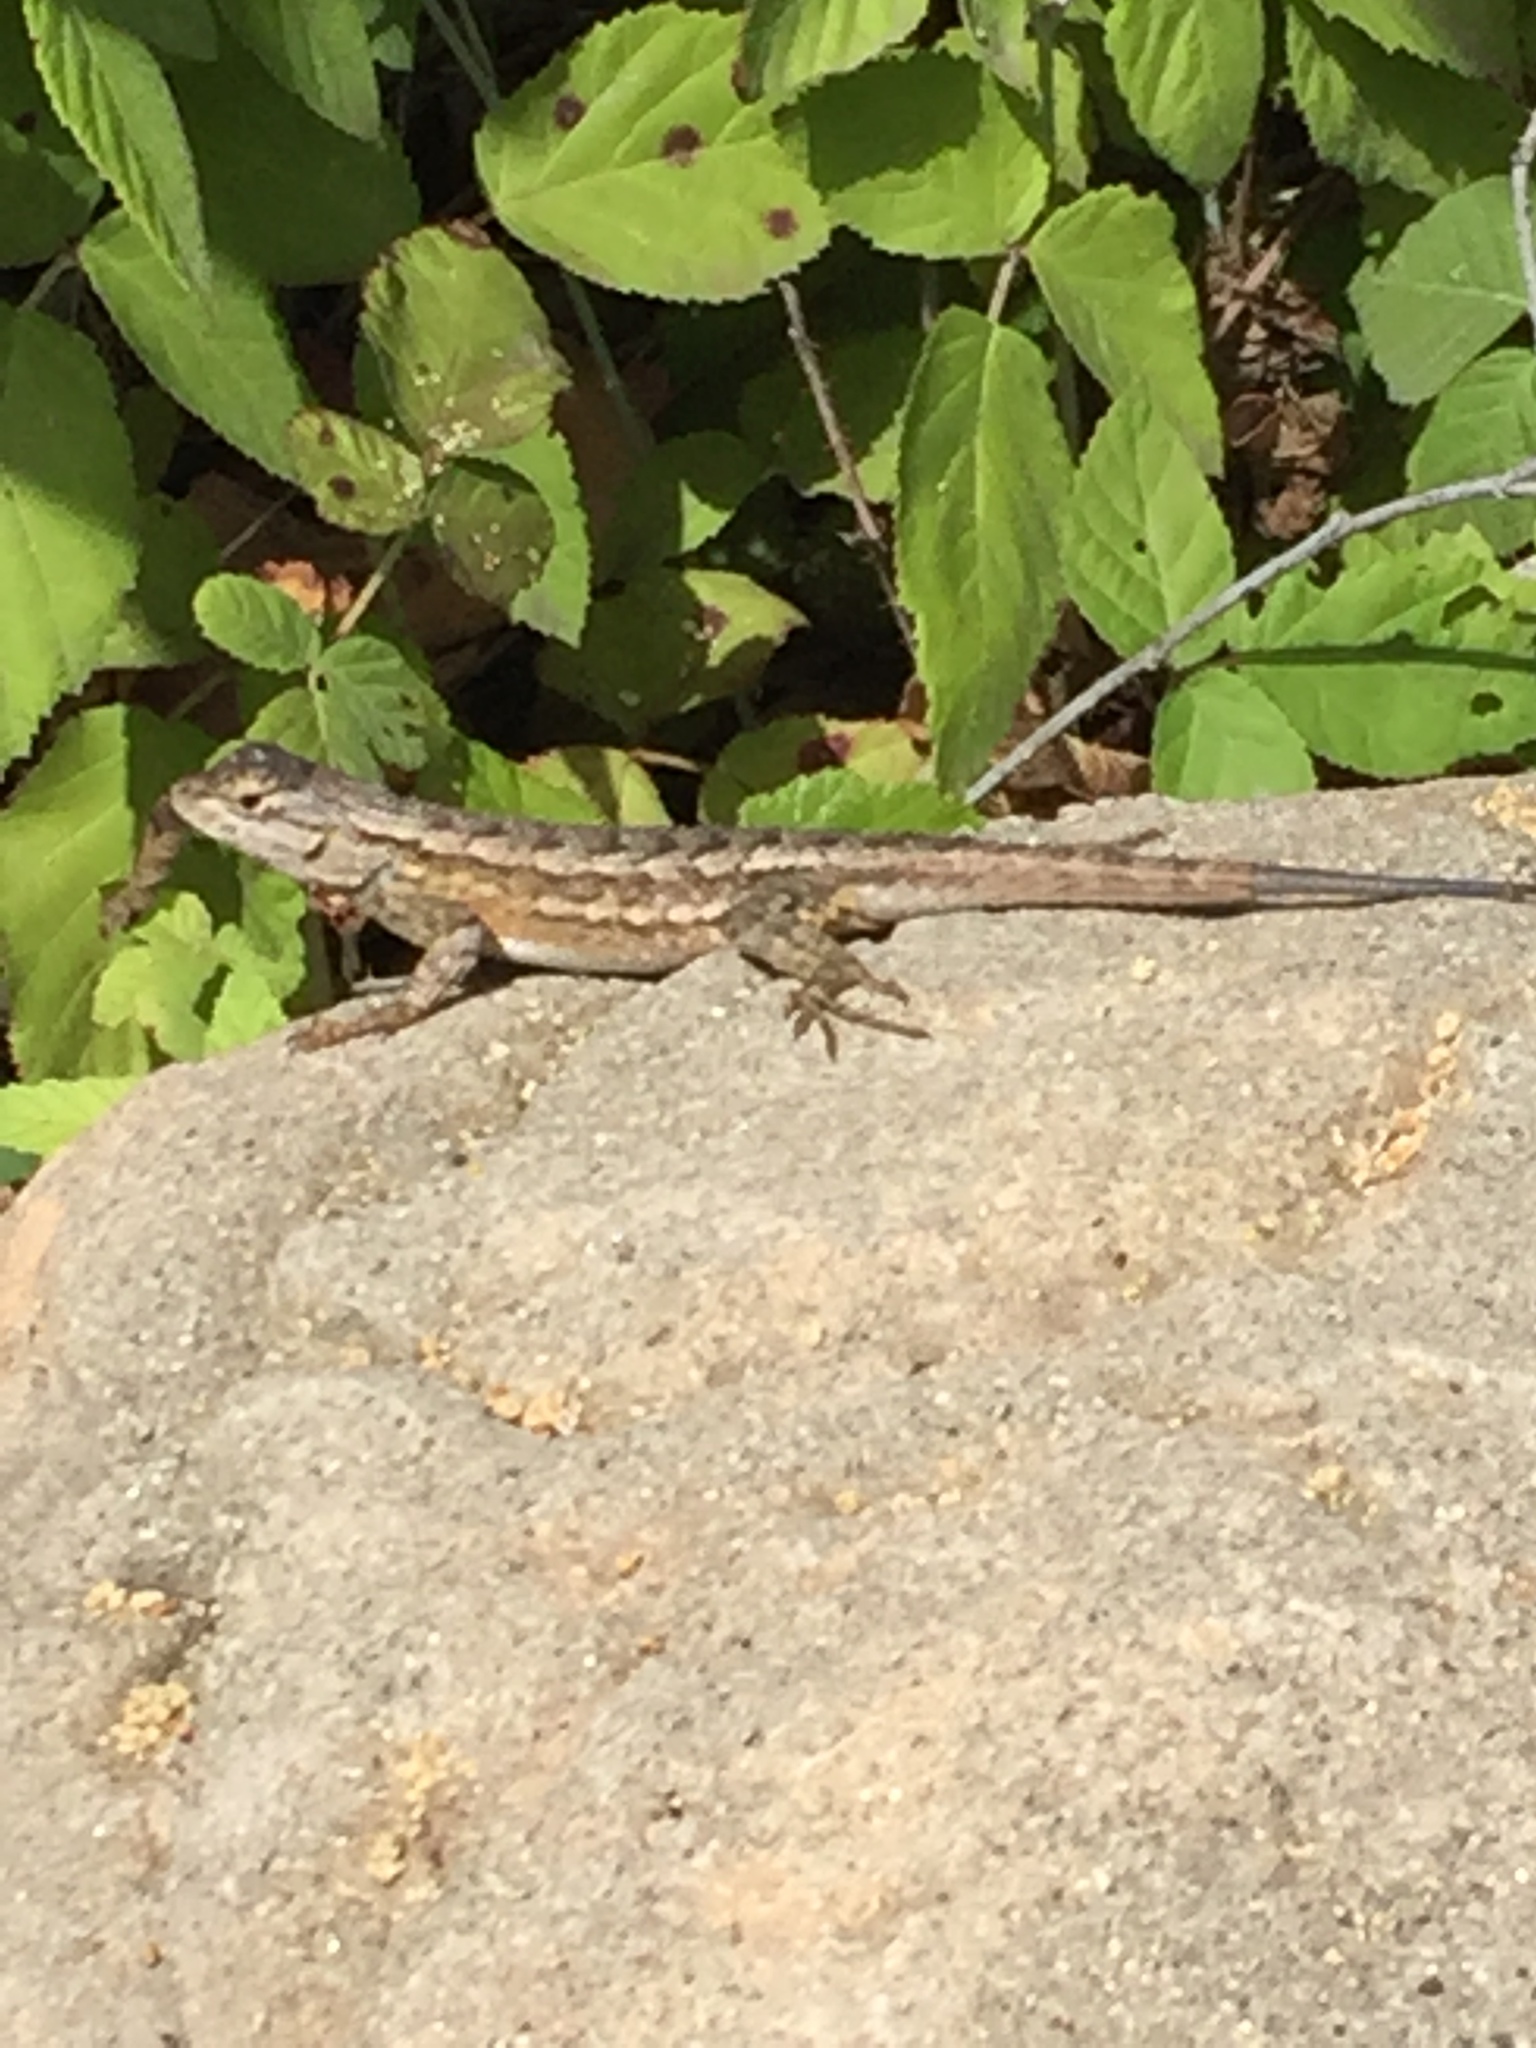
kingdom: Animalia
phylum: Chordata
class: Squamata
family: Phrynosomatidae
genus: Sceloporus
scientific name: Sceloporus occidentalis
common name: Western fence lizard
